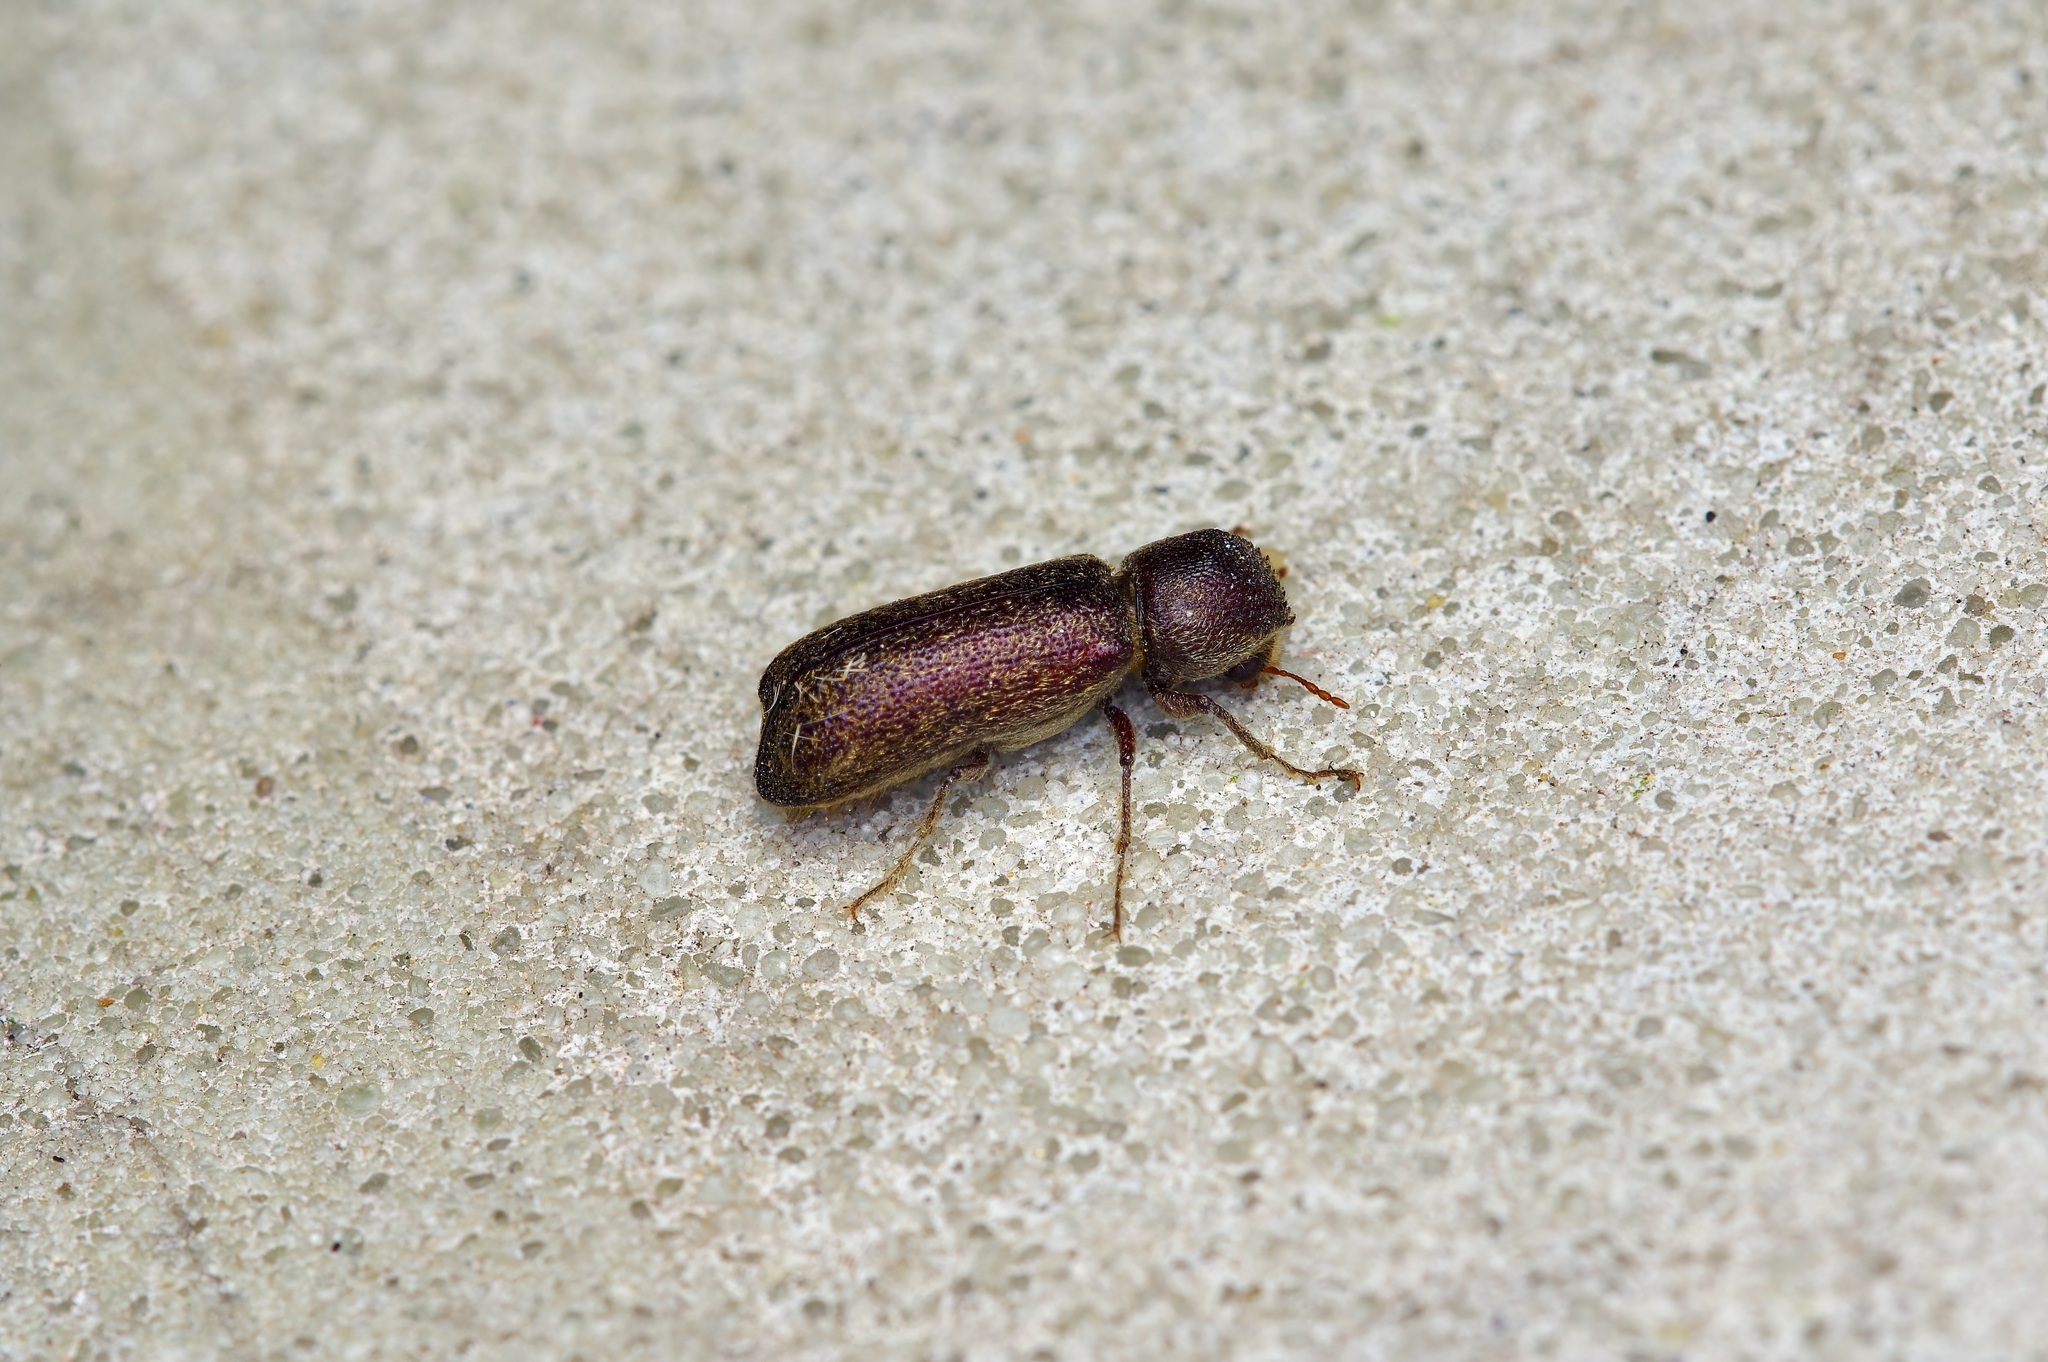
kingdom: Animalia
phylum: Arthropoda
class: Insecta
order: Coleoptera
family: Bostrichidae
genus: Amphicerus
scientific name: Amphicerus cornutus
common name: Powderpost beetle
